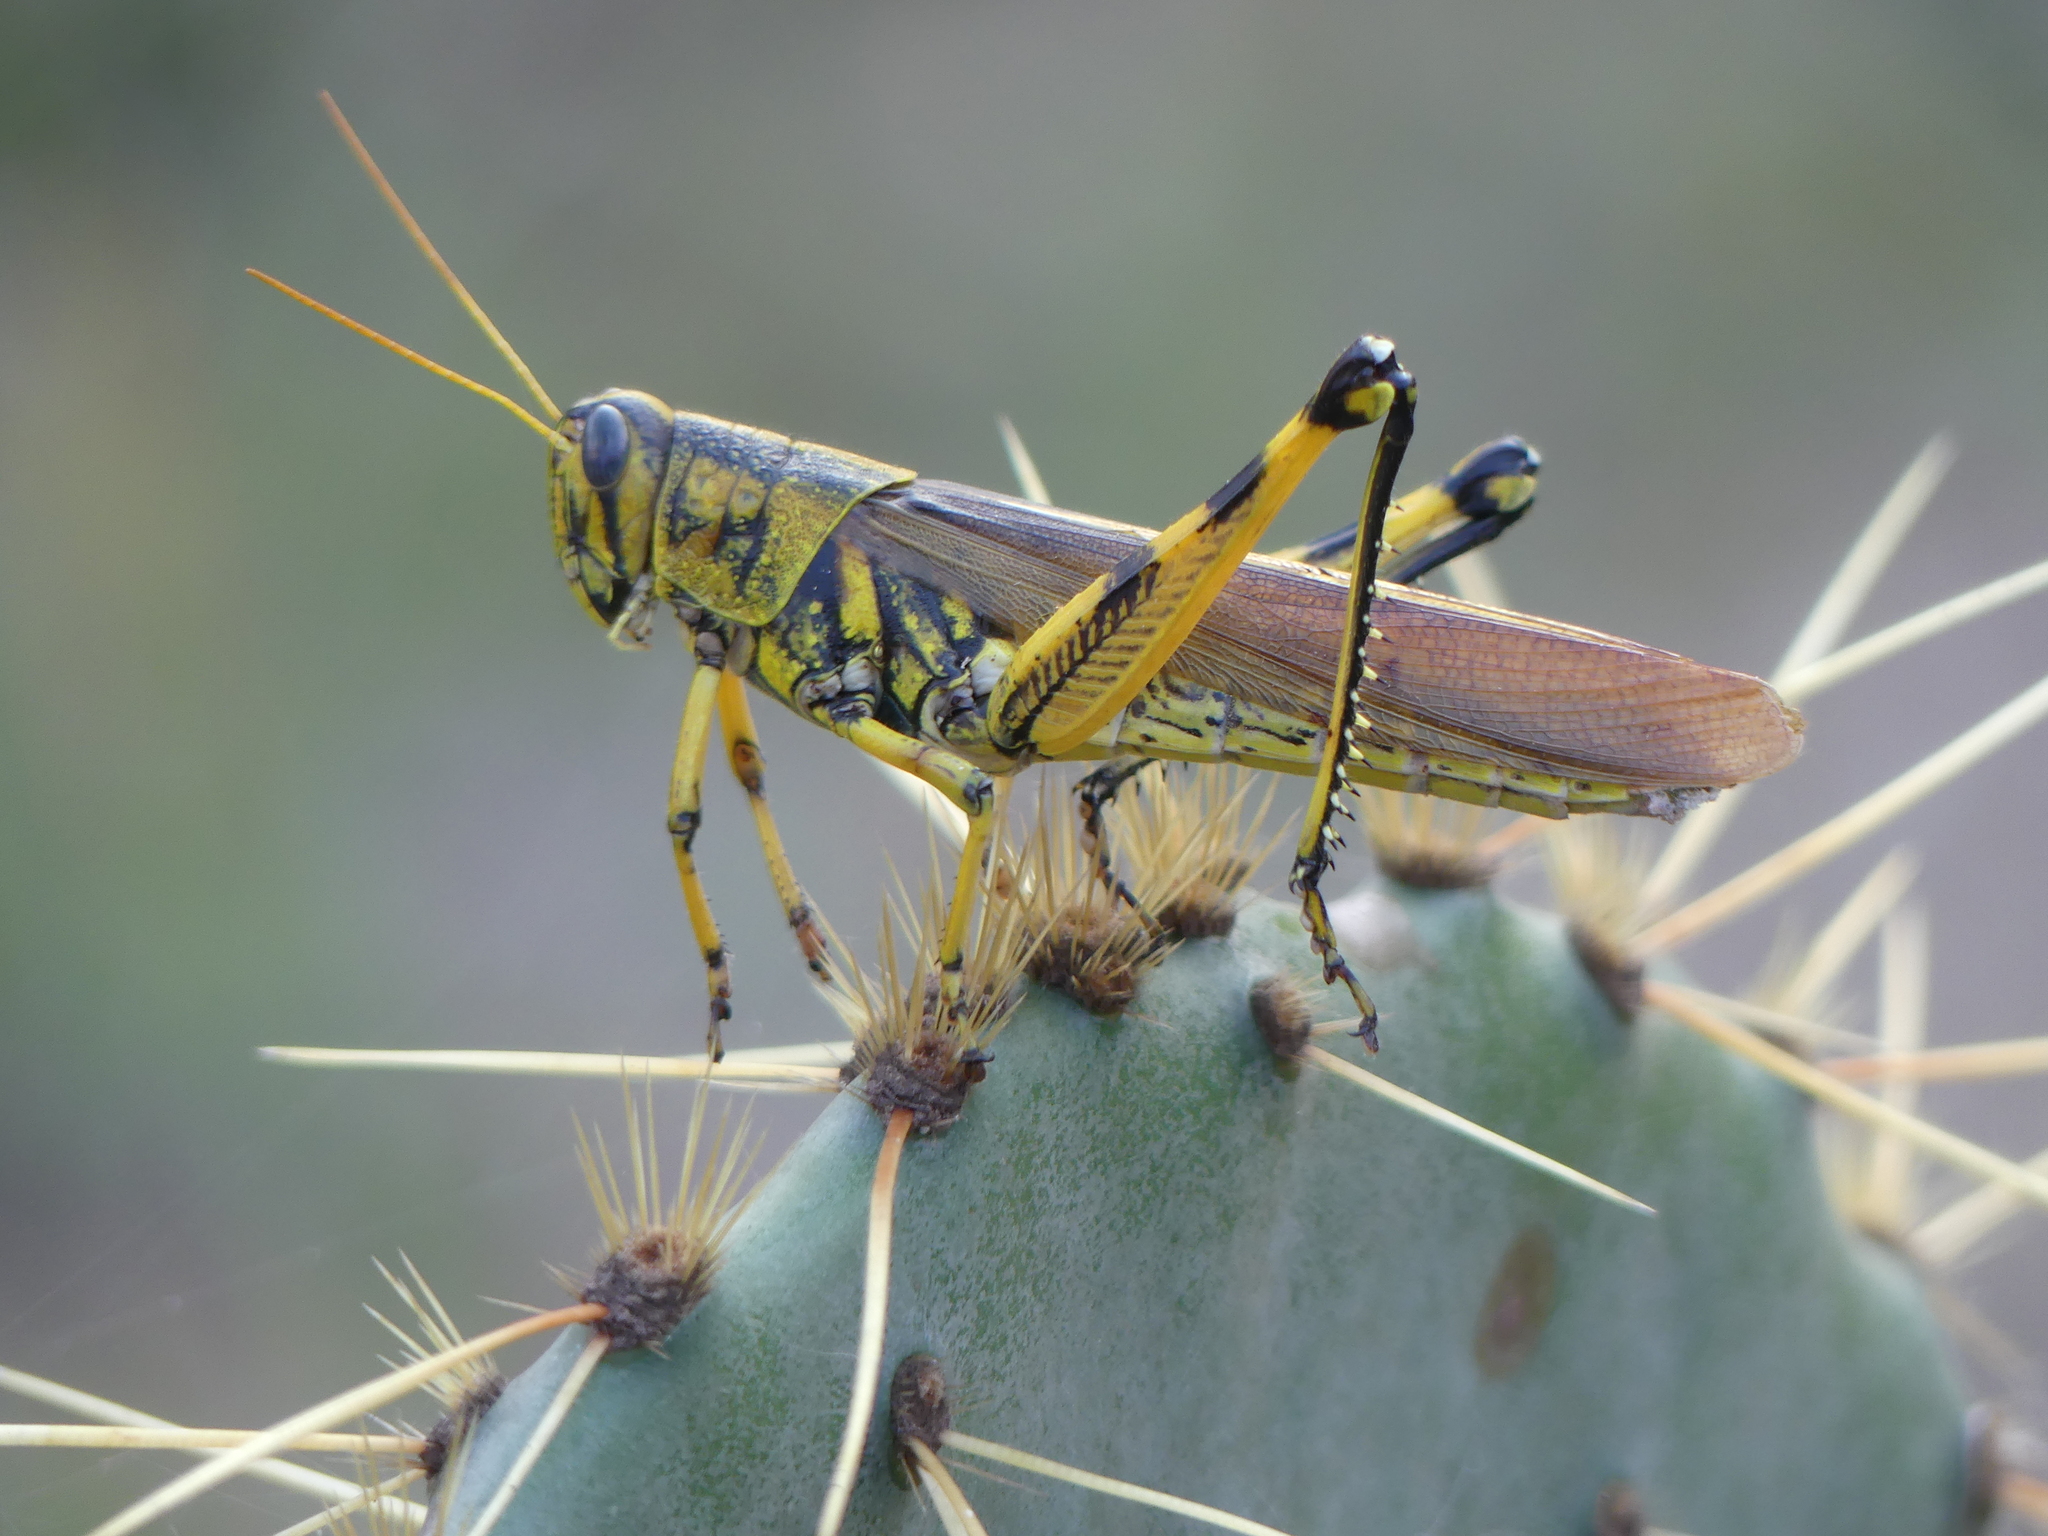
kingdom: Animalia
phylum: Arthropoda
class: Insecta
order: Orthoptera
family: Acrididae
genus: Schistocerca
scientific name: Schistocerca lineata
